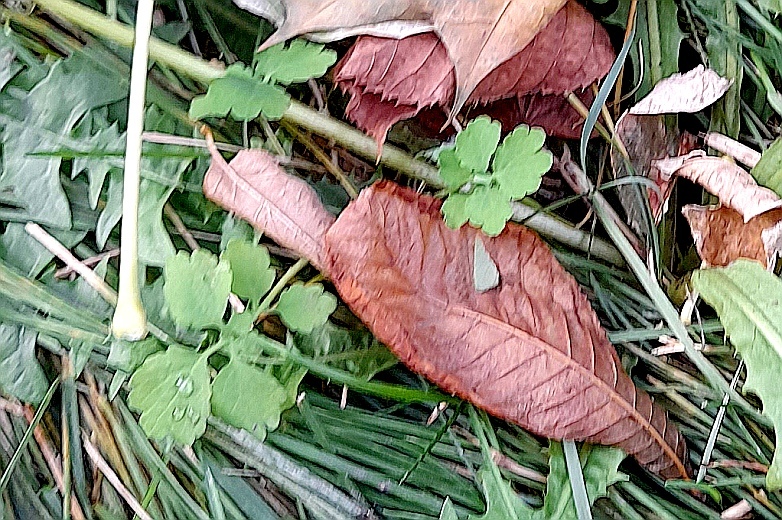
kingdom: Plantae
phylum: Tracheophyta
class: Magnoliopsida
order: Ranunculales
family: Papaveraceae
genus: Chelidonium
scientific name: Chelidonium majus
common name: Greater celandine
